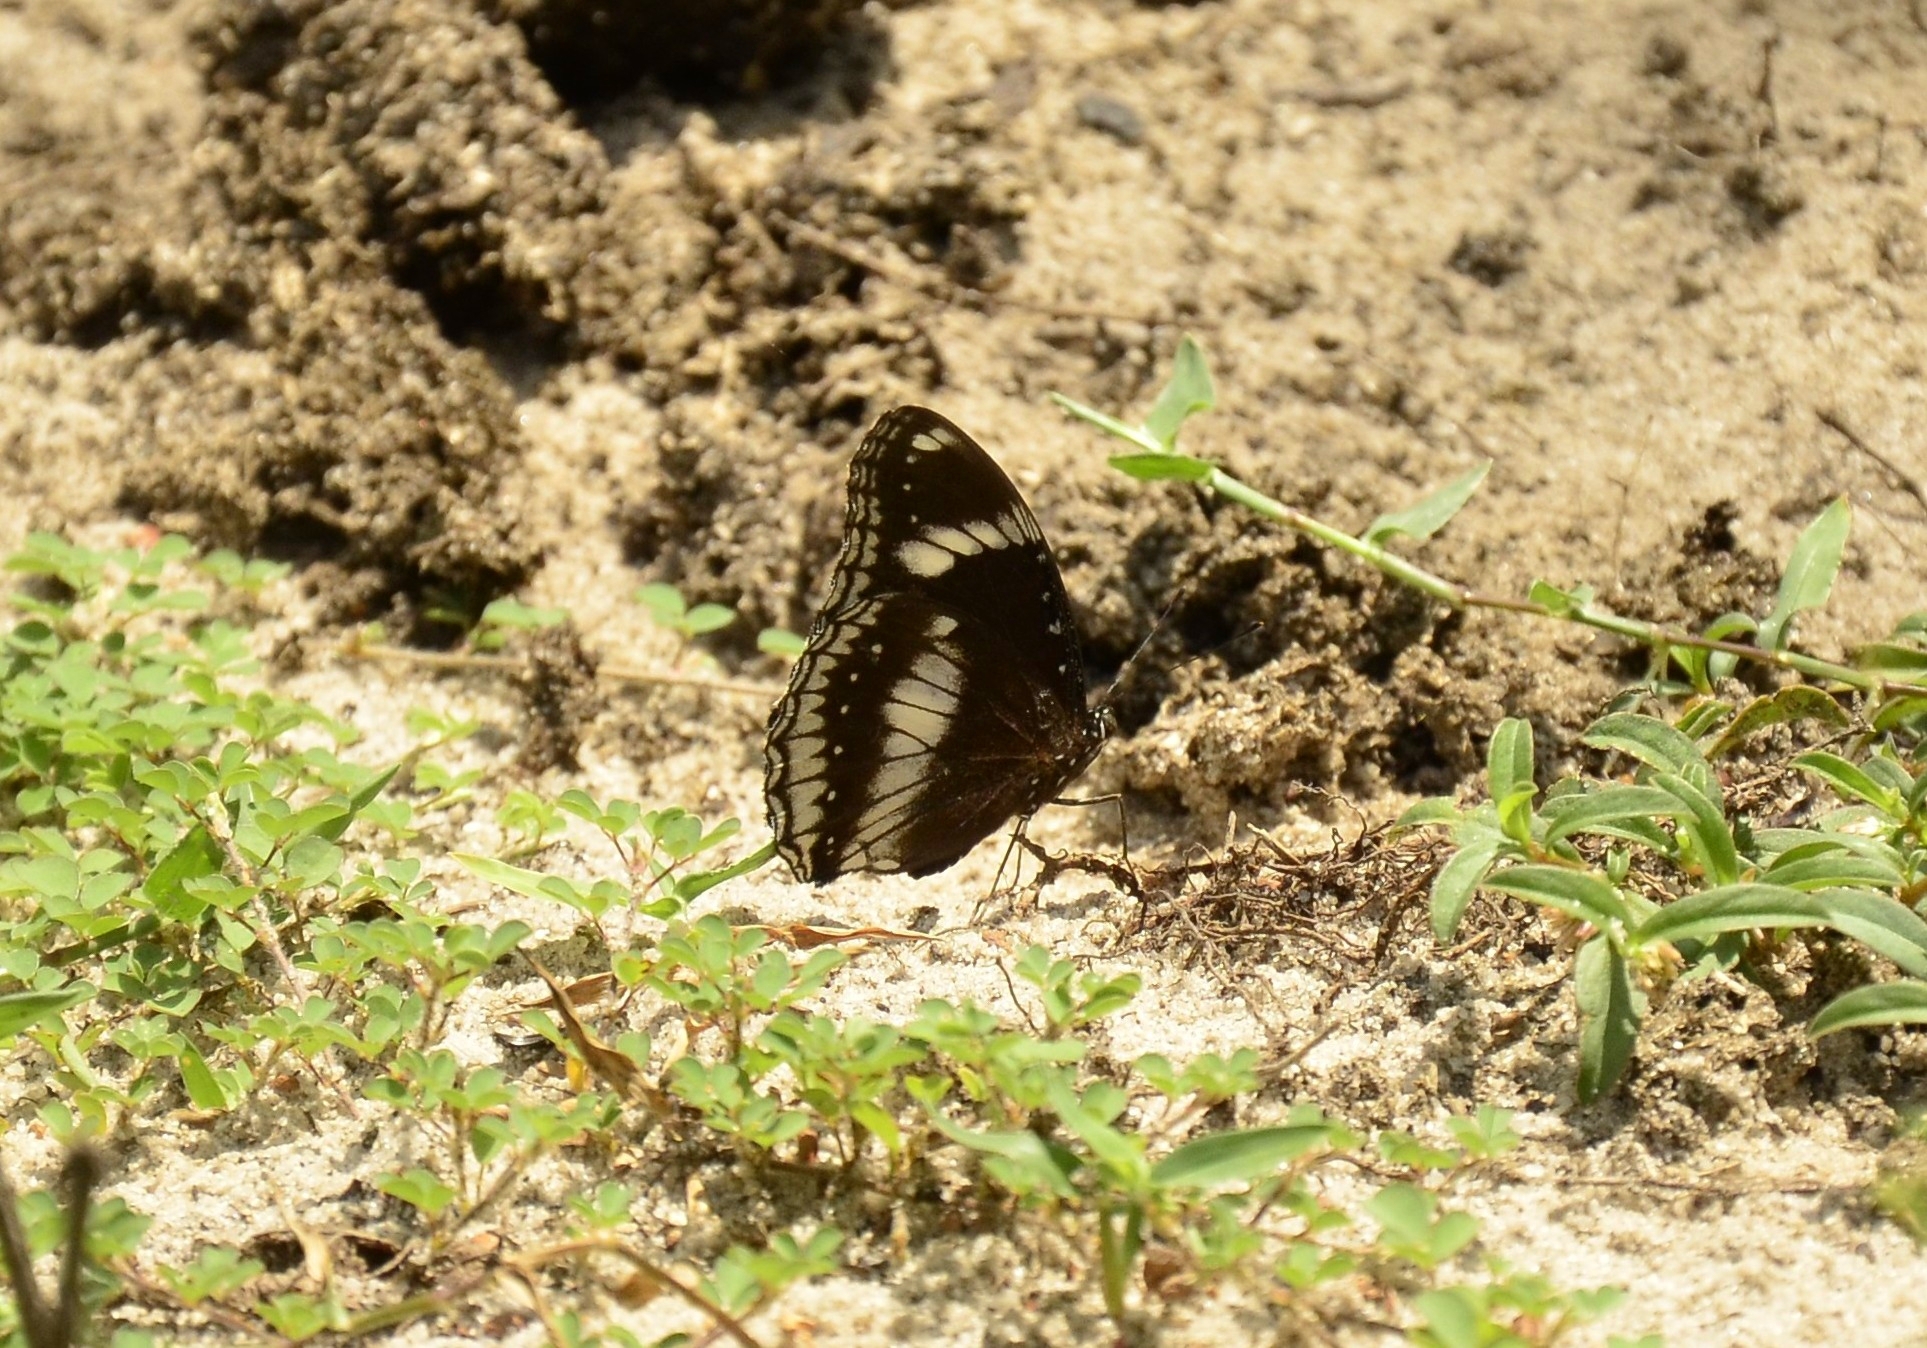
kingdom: Animalia
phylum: Arthropoda
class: Insecta
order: Lepidoptera
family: Nymphalidae
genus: Hypolimnas
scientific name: Hypolimnas bolina
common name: Great eggfly
